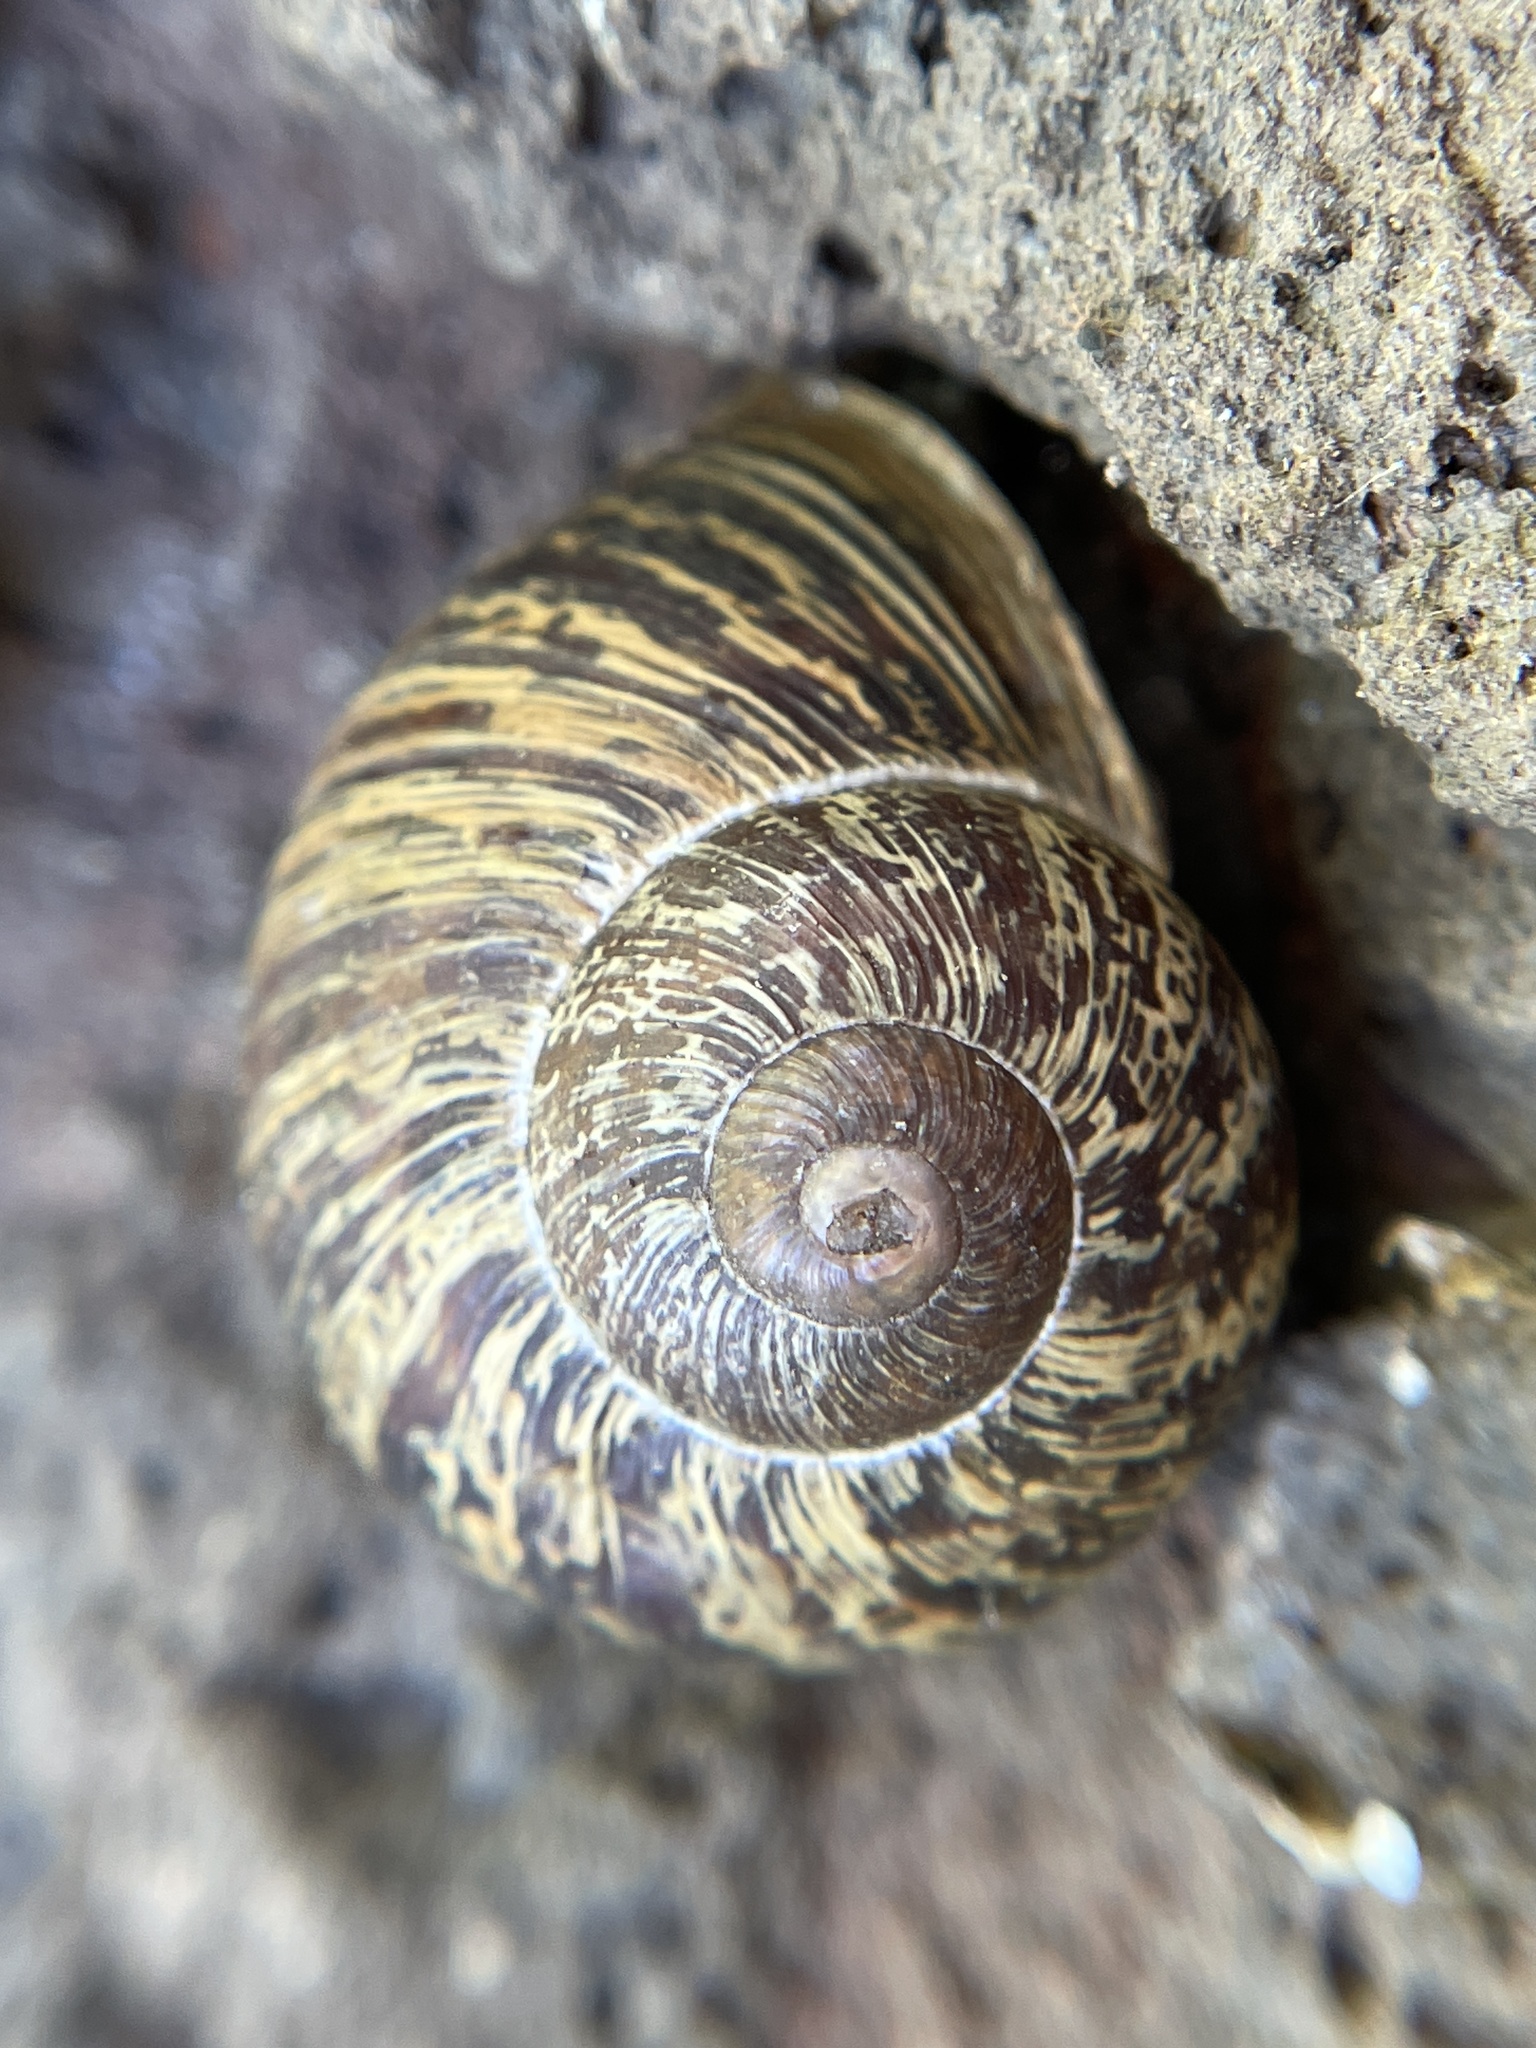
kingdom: Animalia
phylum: Mollusca
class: Gastropoda
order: Stylommatophora
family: Helicidae
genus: Cornu
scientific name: Cornu aspersum
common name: Brown garden snail
